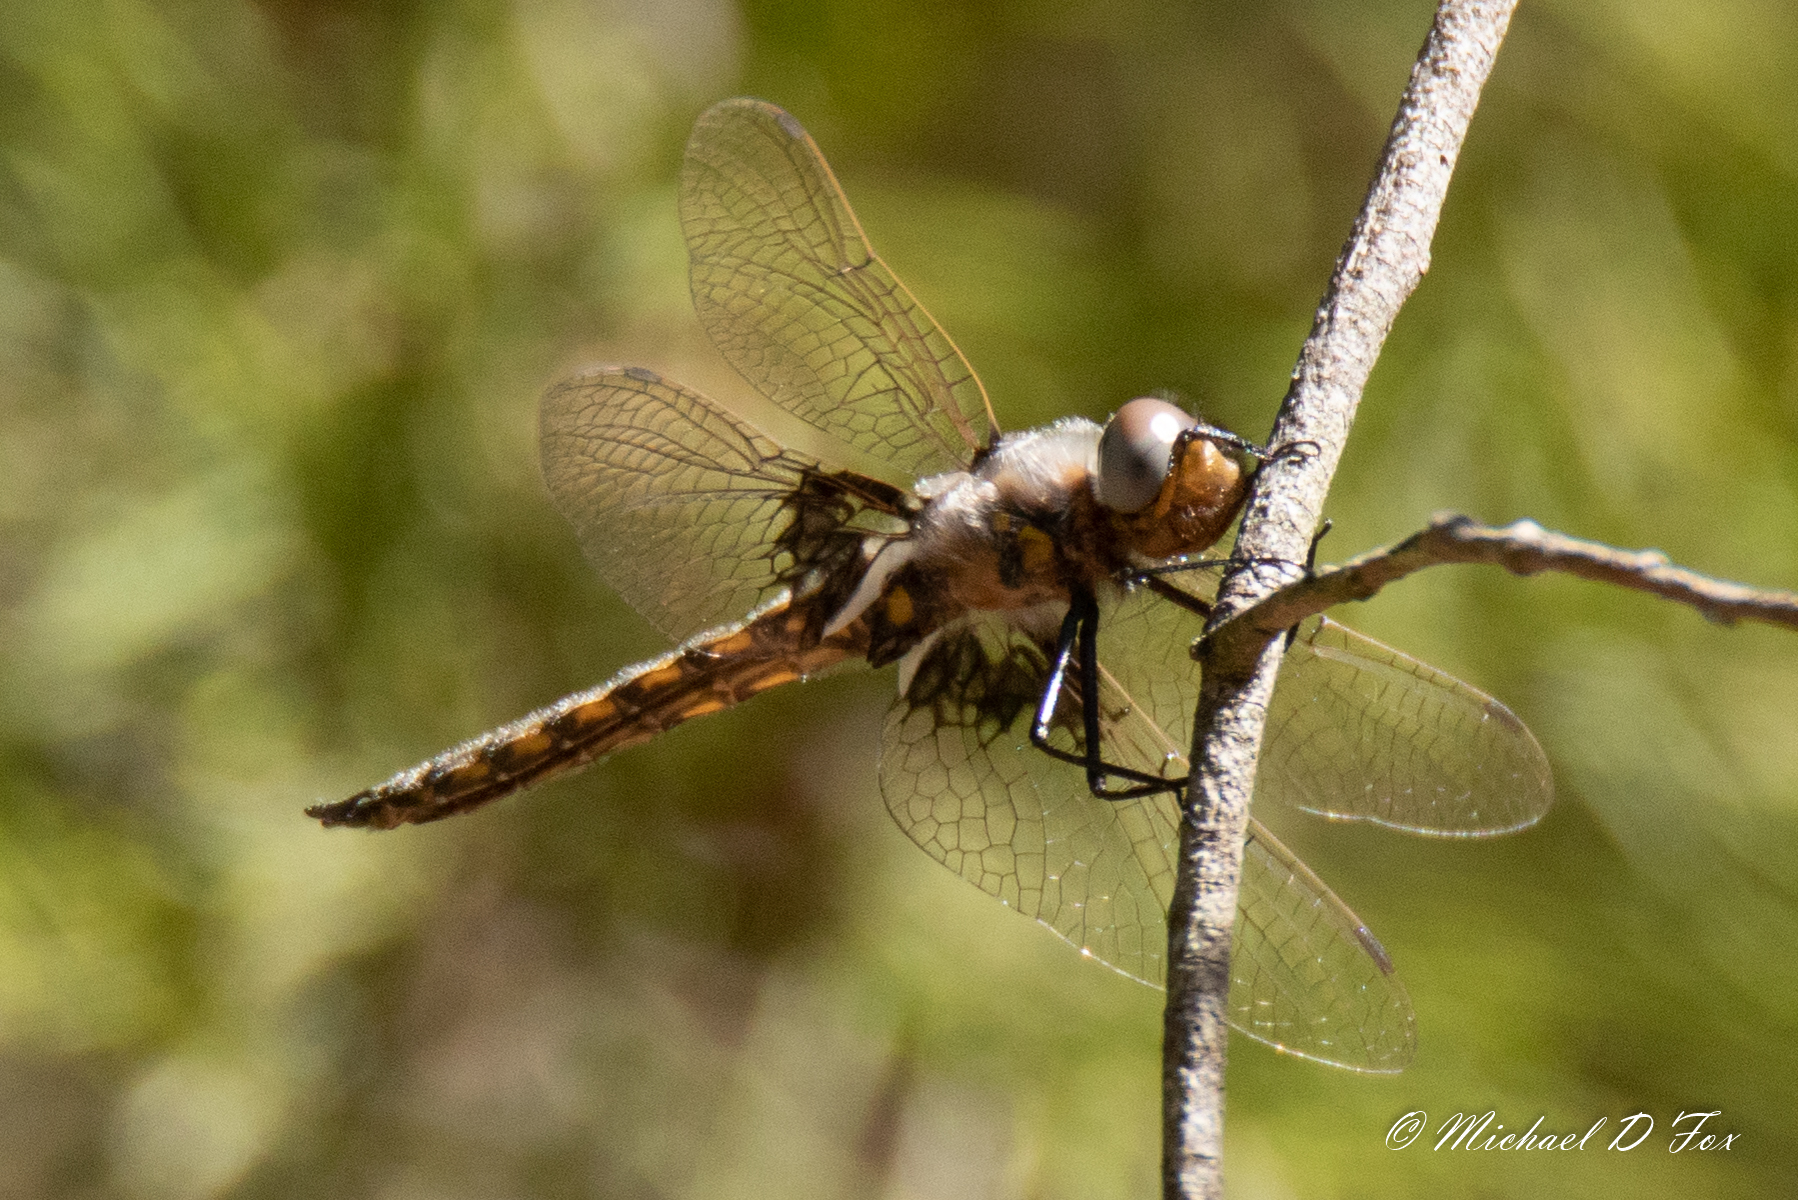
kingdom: Animalia
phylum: Arthropoda
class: Insecta
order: Odonata
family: Corduliidae
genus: Epitheca
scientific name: Epitheca semiaquea
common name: Mantled baskettail
